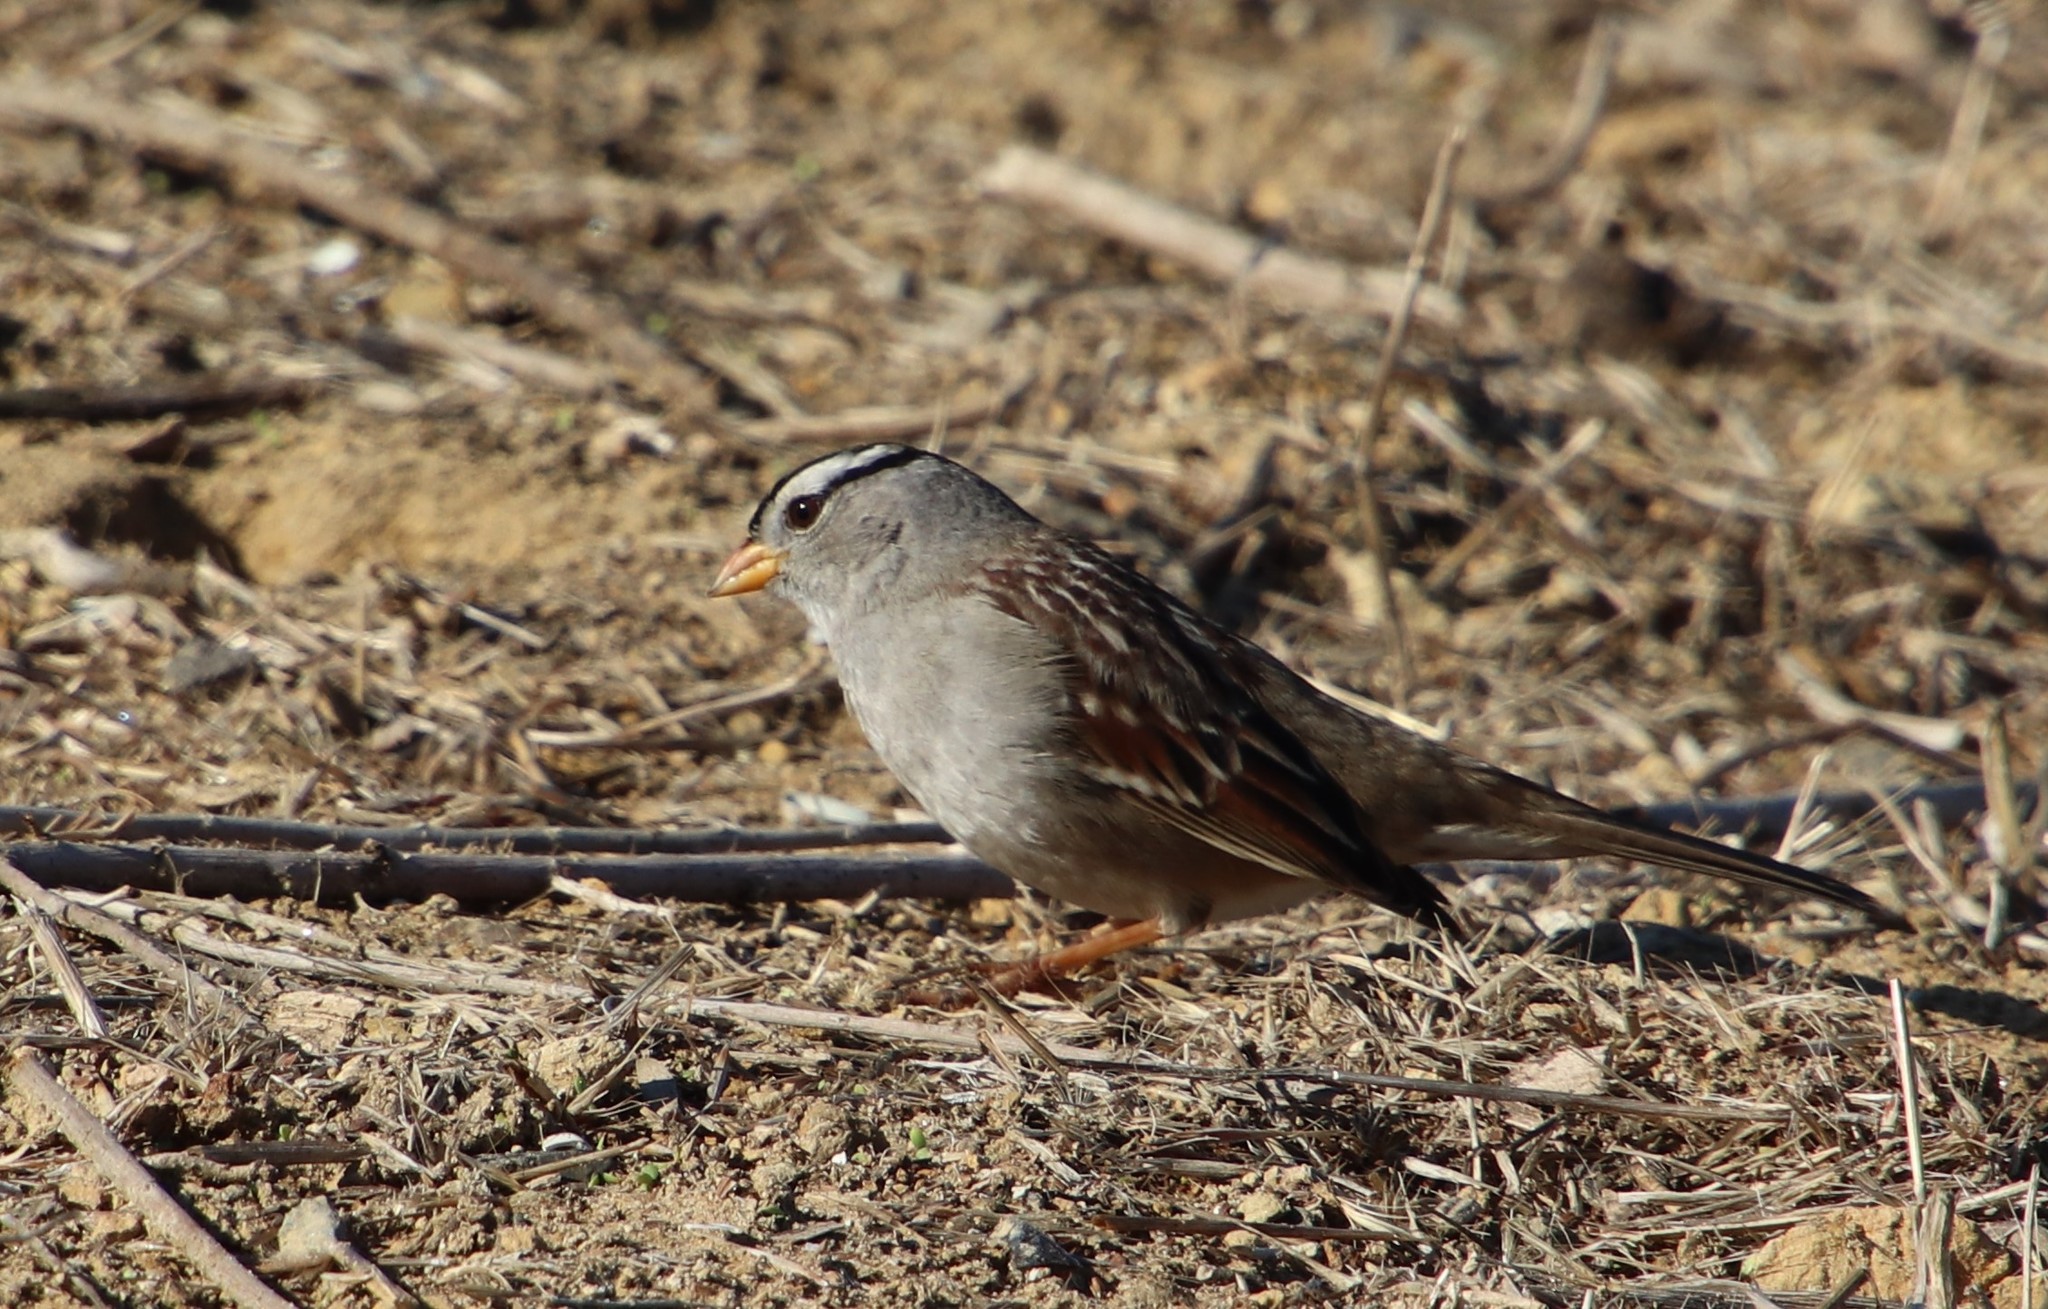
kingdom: Animalia
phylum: Chordata
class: Aves
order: Passeriformes
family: Passerellidae
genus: Zonotrichia
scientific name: Zonotrichia leucophrys
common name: White-crowned sparrow
